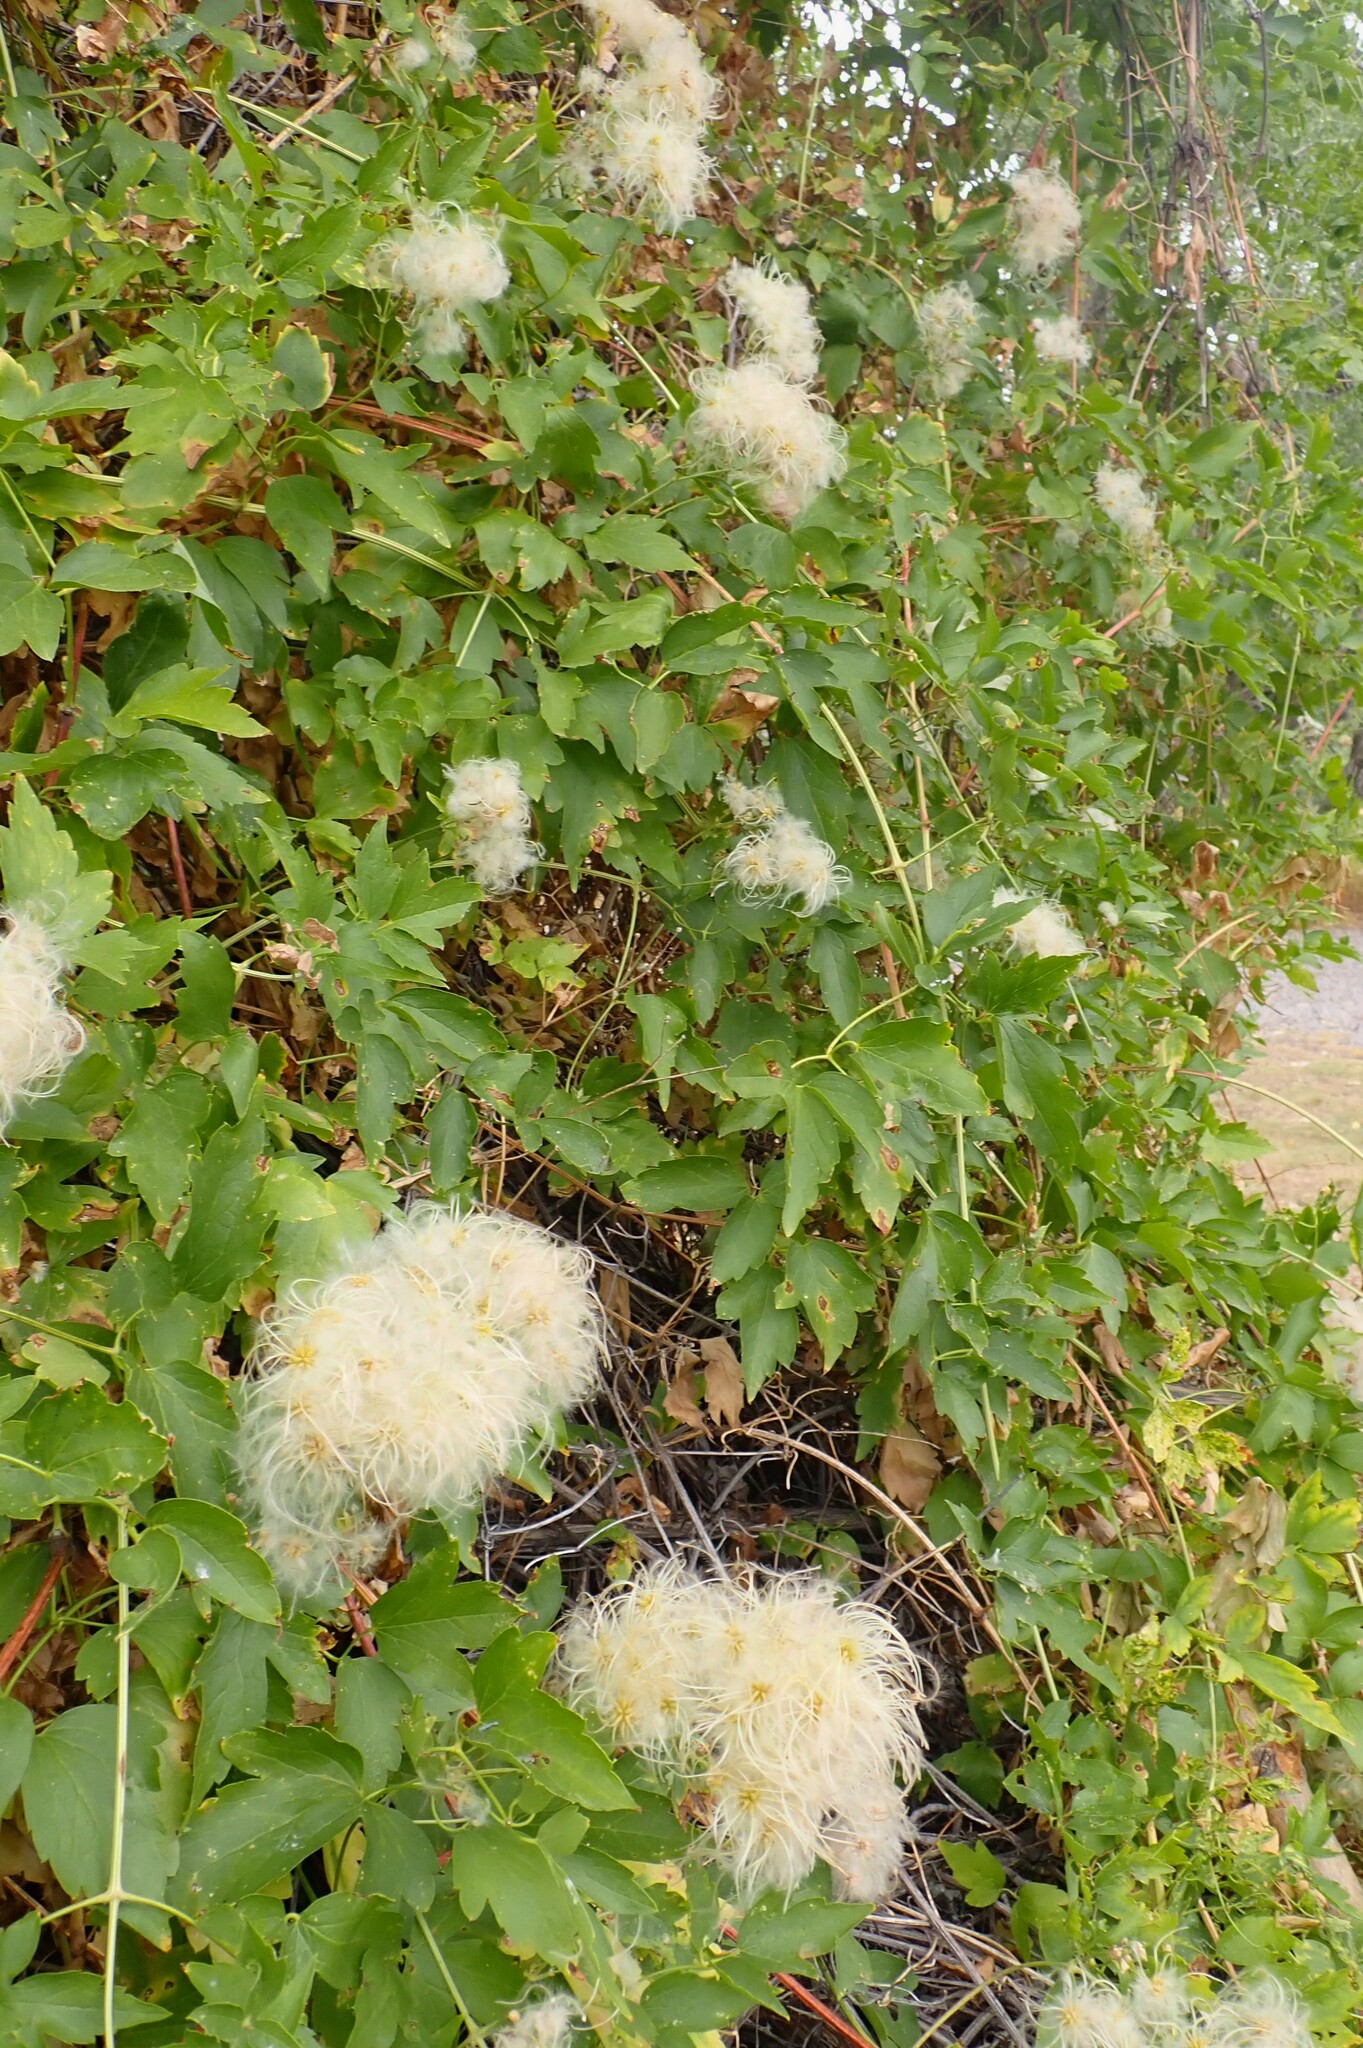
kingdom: Plantae
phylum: Tracheophyta
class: Magnoliopsida
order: Ranunculales
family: Ranunculaceae
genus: Clematis
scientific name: Clematis ligusticifolia
